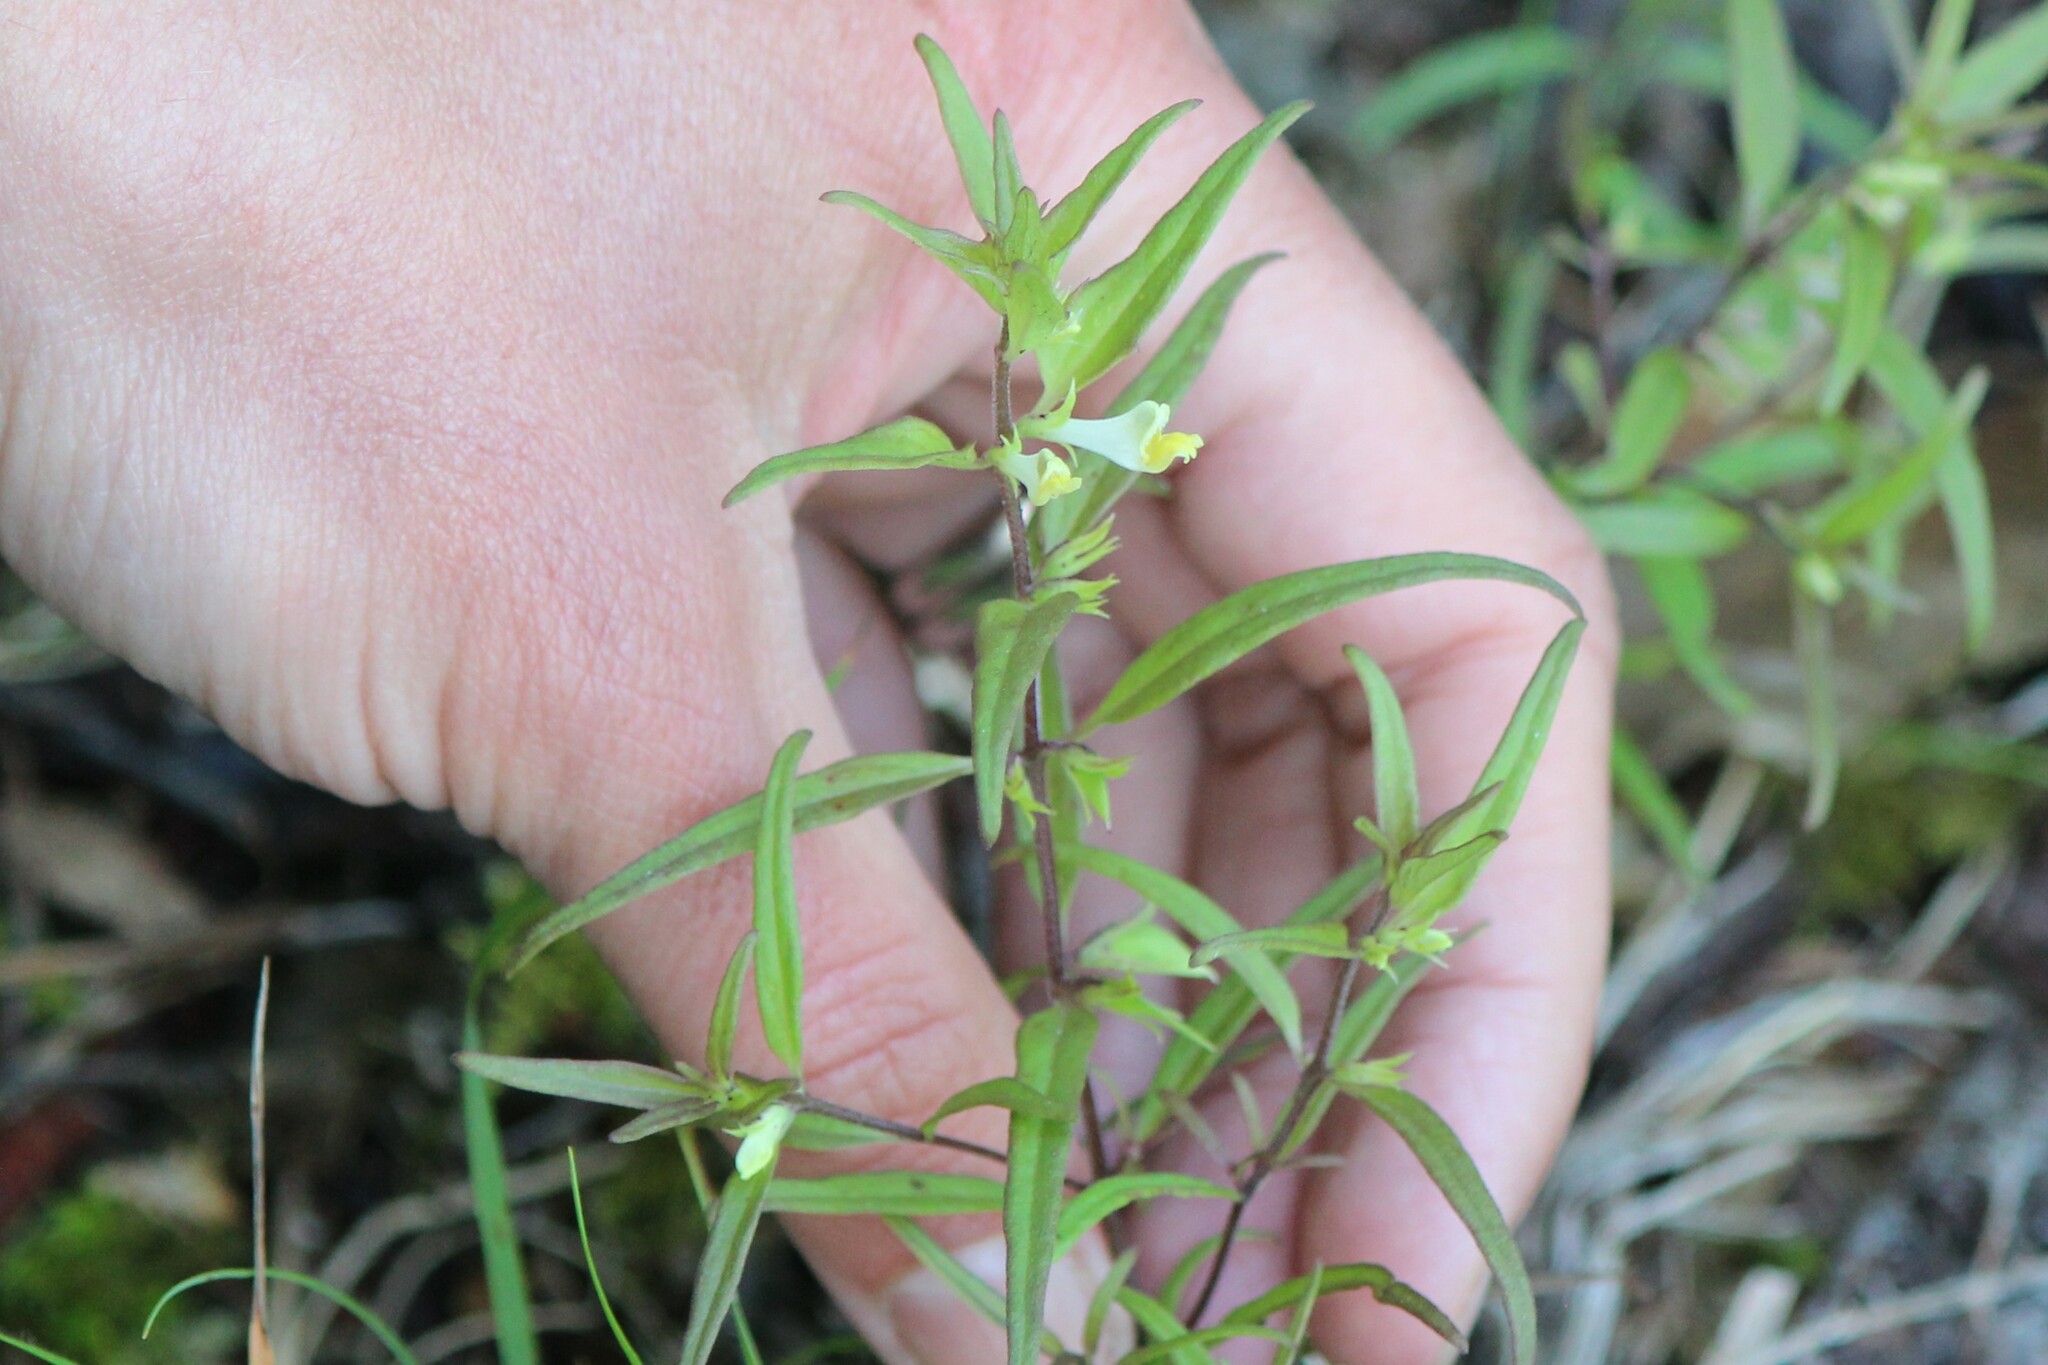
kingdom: Plantae
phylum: Tracheophyta
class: Magnoliopsida
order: Lamiales
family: Orobanchaceae
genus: Melampyrum
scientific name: Melampyrum lineare
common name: American cow-wheat
